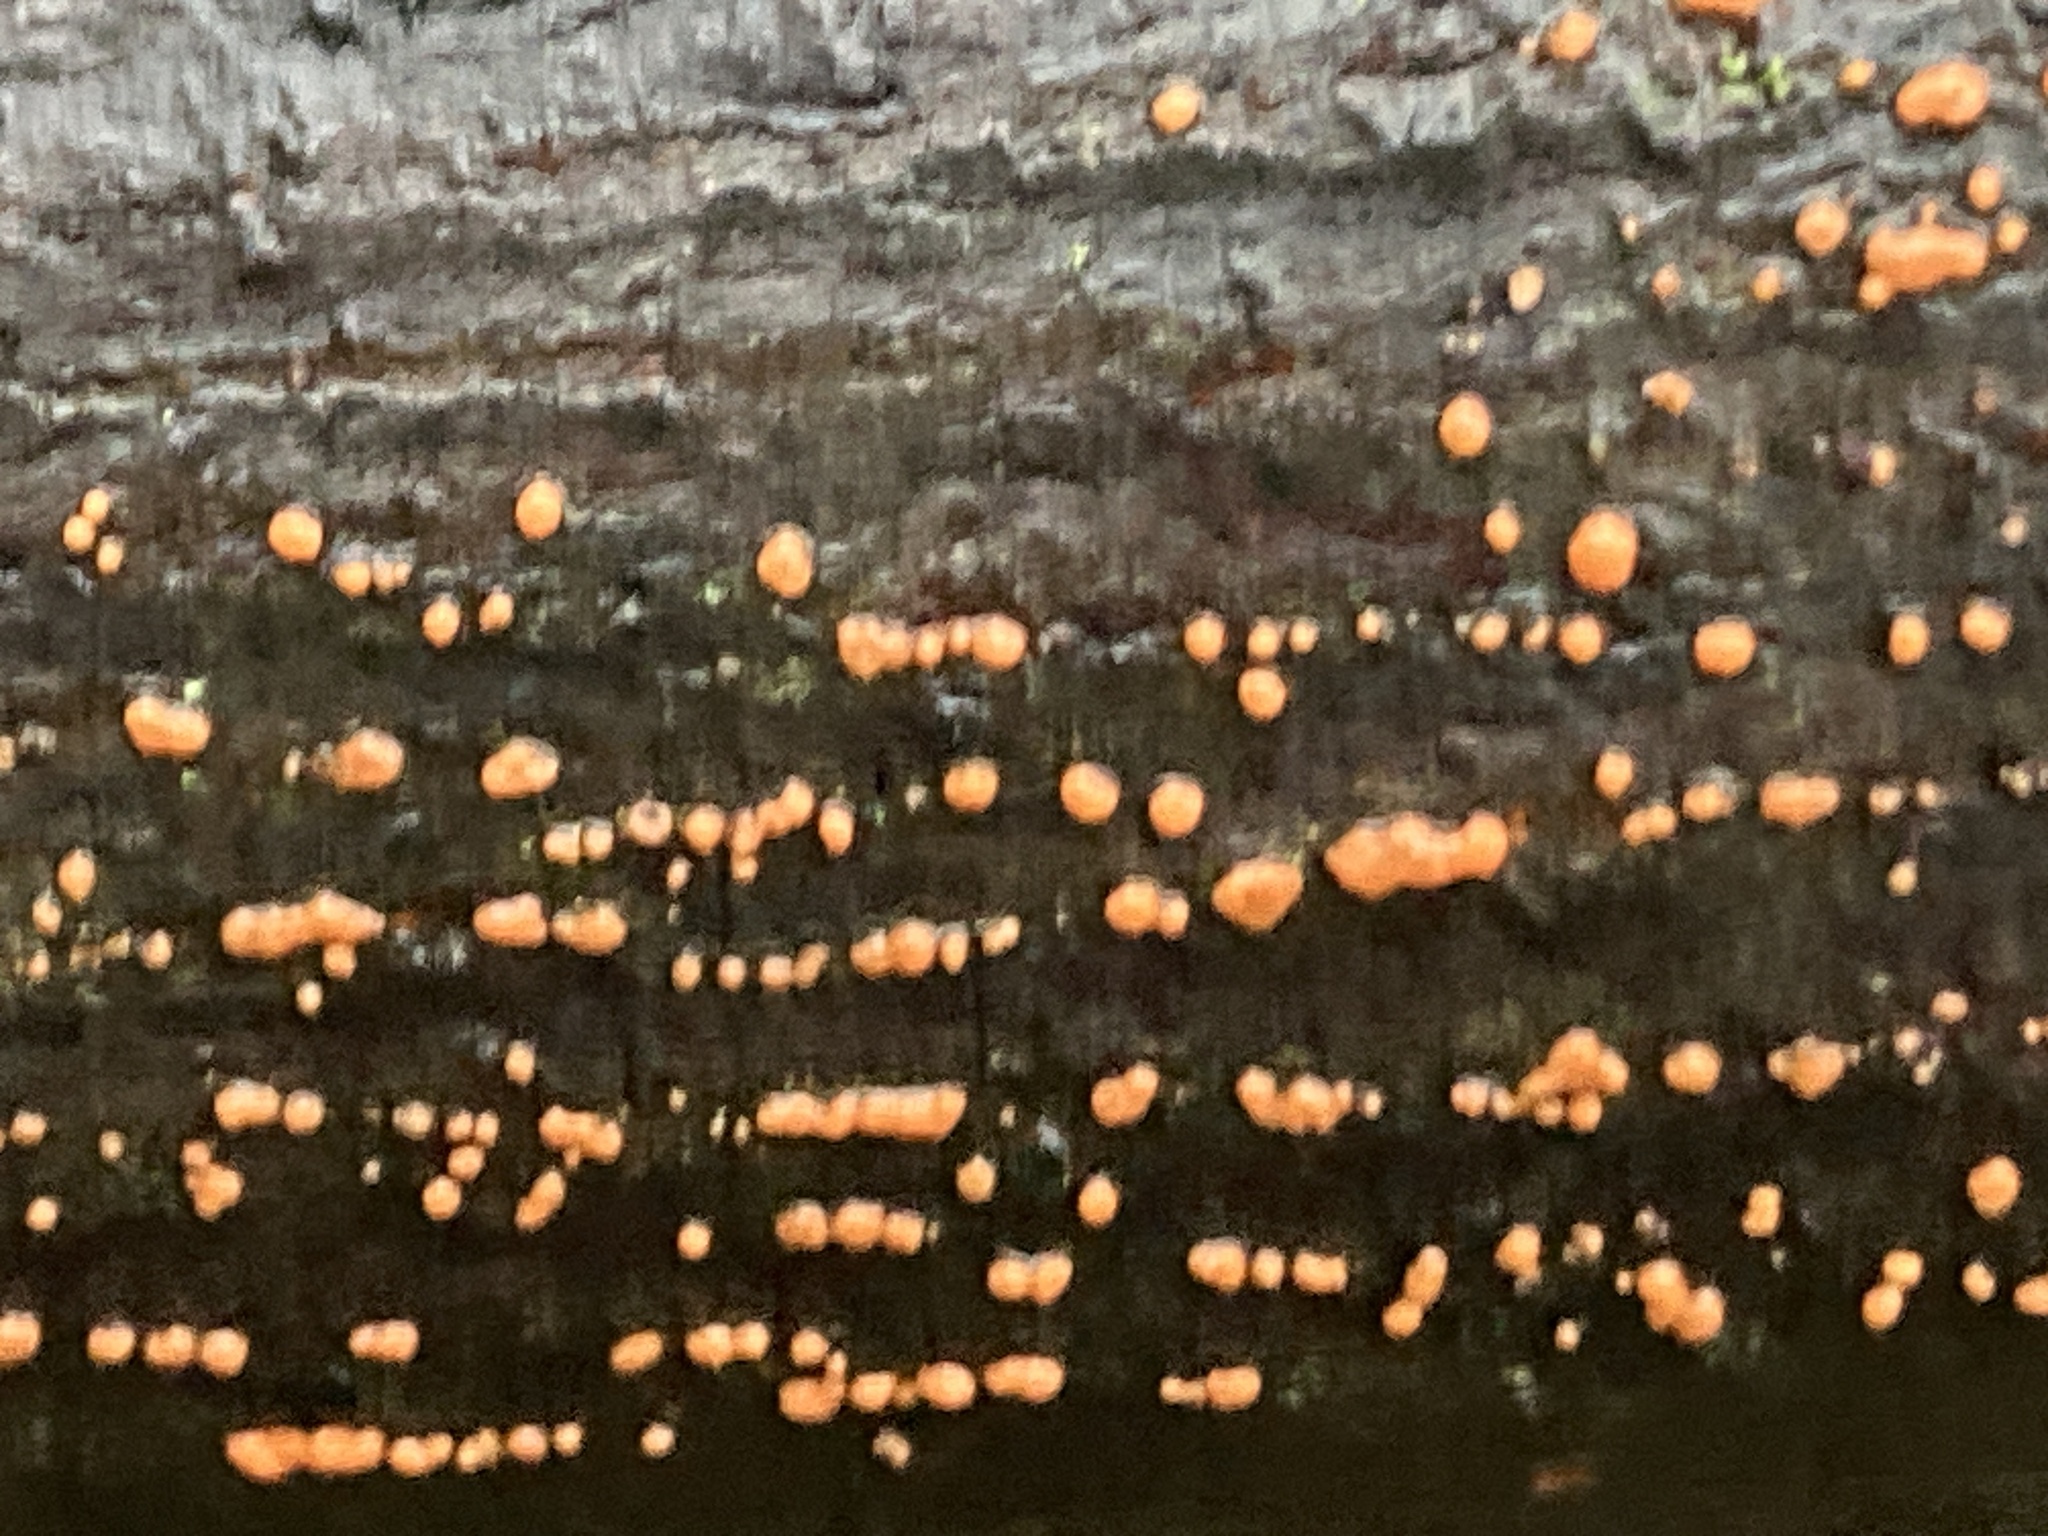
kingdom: Fungi
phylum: Ascomycota
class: Sordariomycetes
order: Hypocreales
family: Nectriaceae
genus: Nectria
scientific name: Nectria cinnabarina
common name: Coral spot
